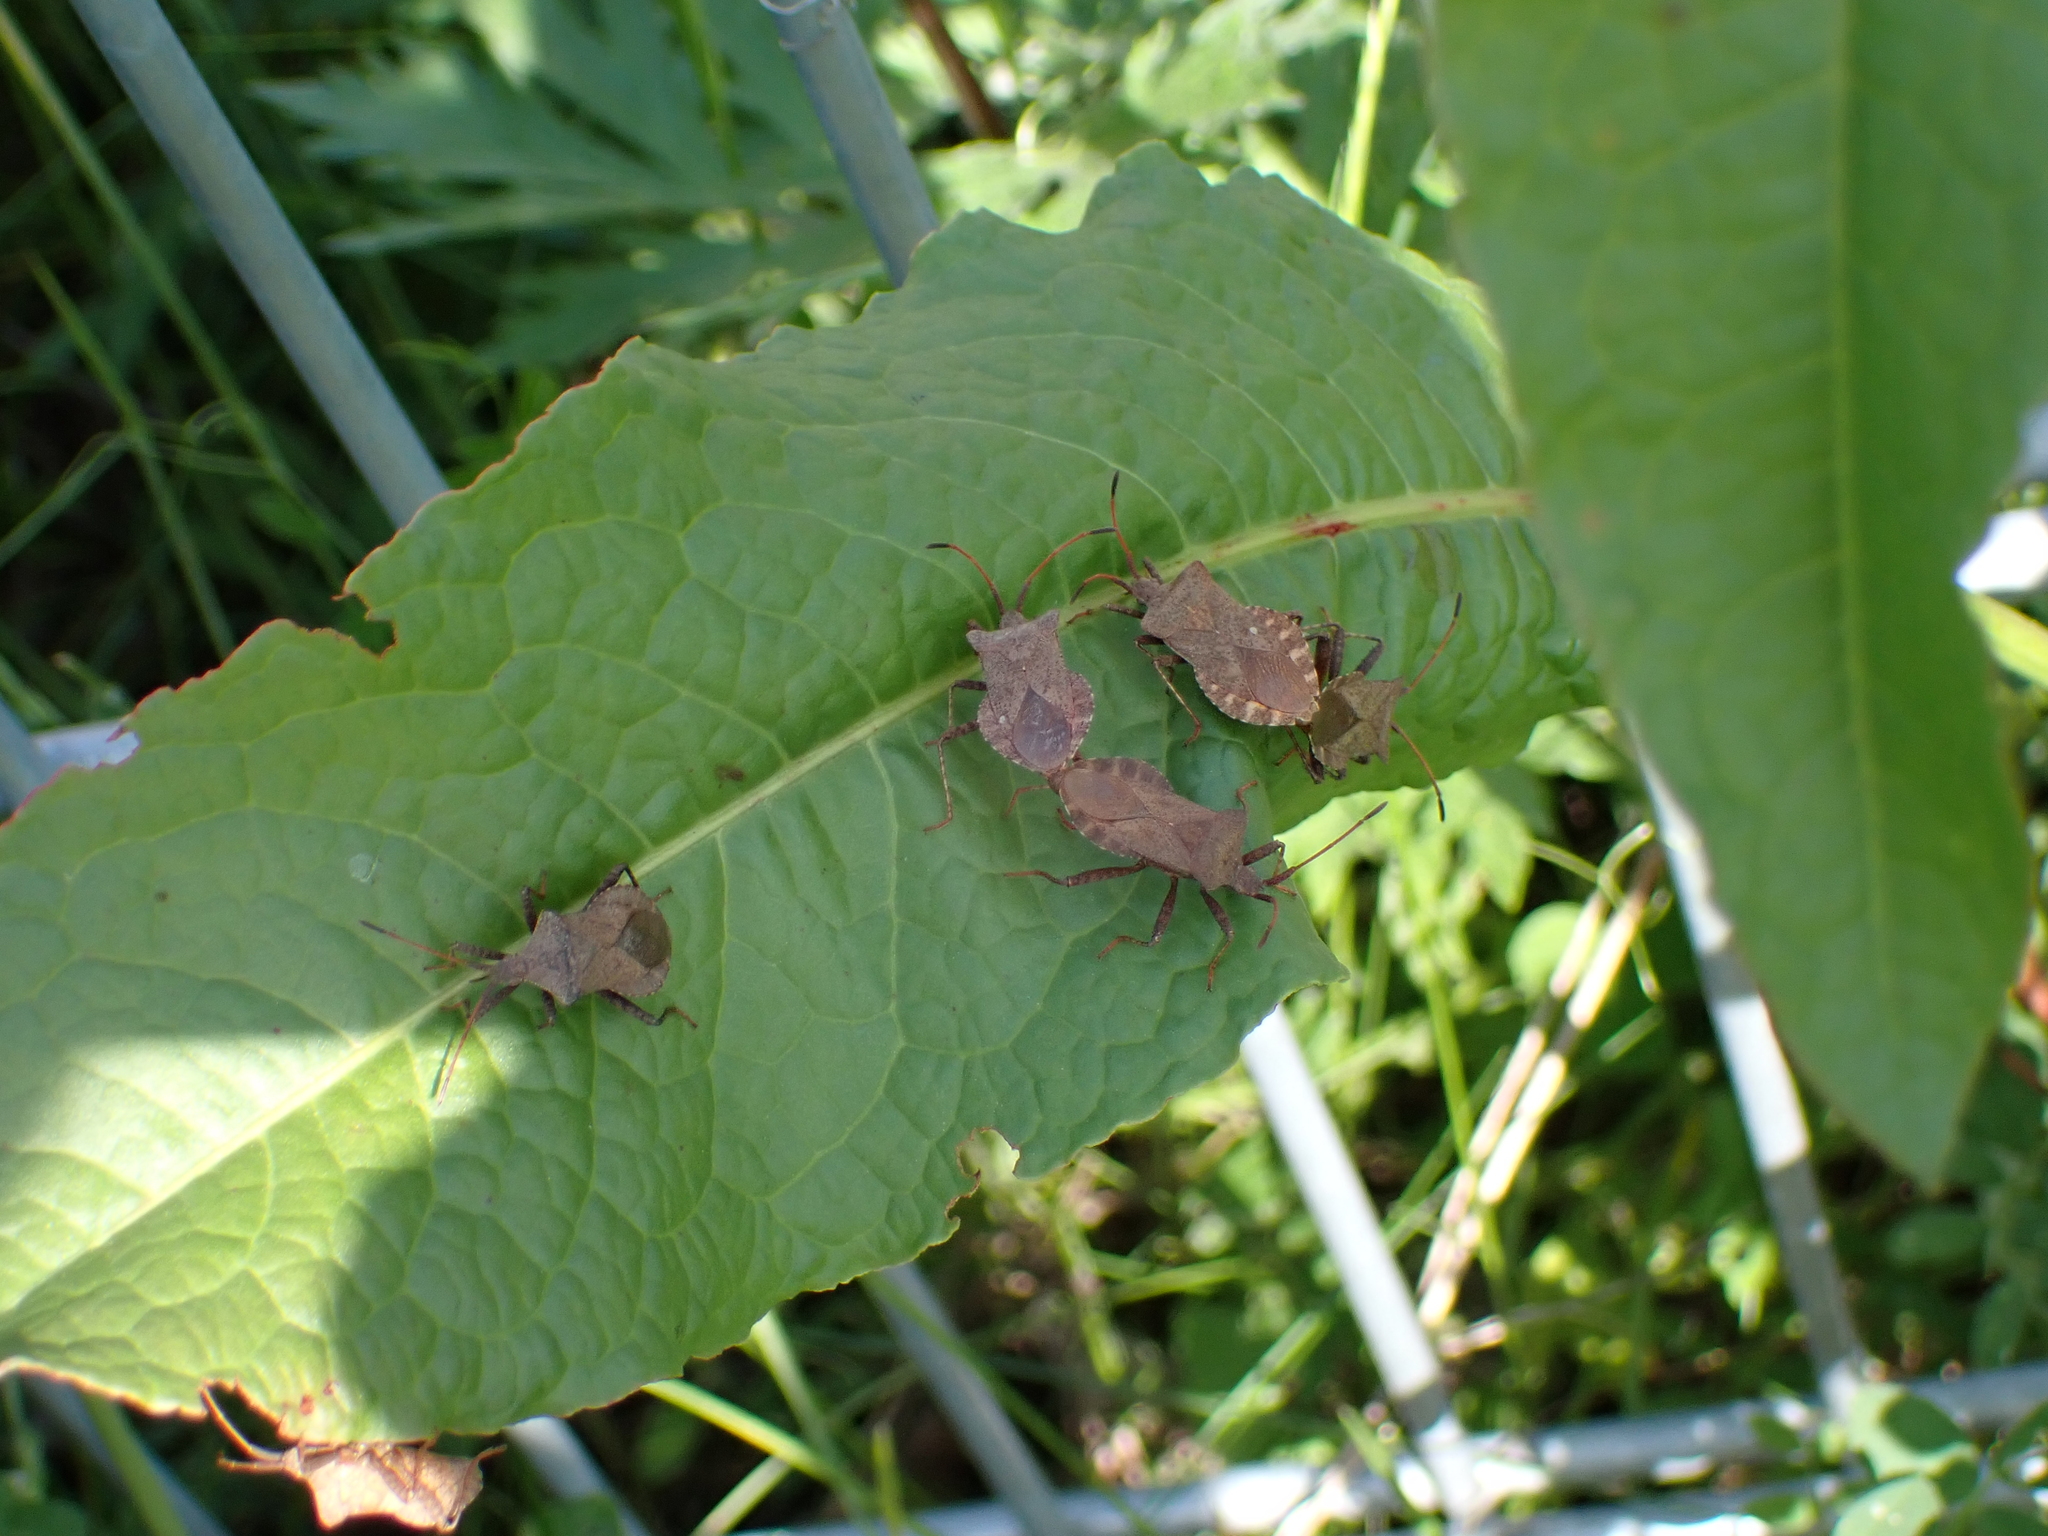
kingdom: Animalia
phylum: Arthropoda
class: Insecta
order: Hemiptera
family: Coreidae
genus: Coreus
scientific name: Coreus marginatus
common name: Dock bug
